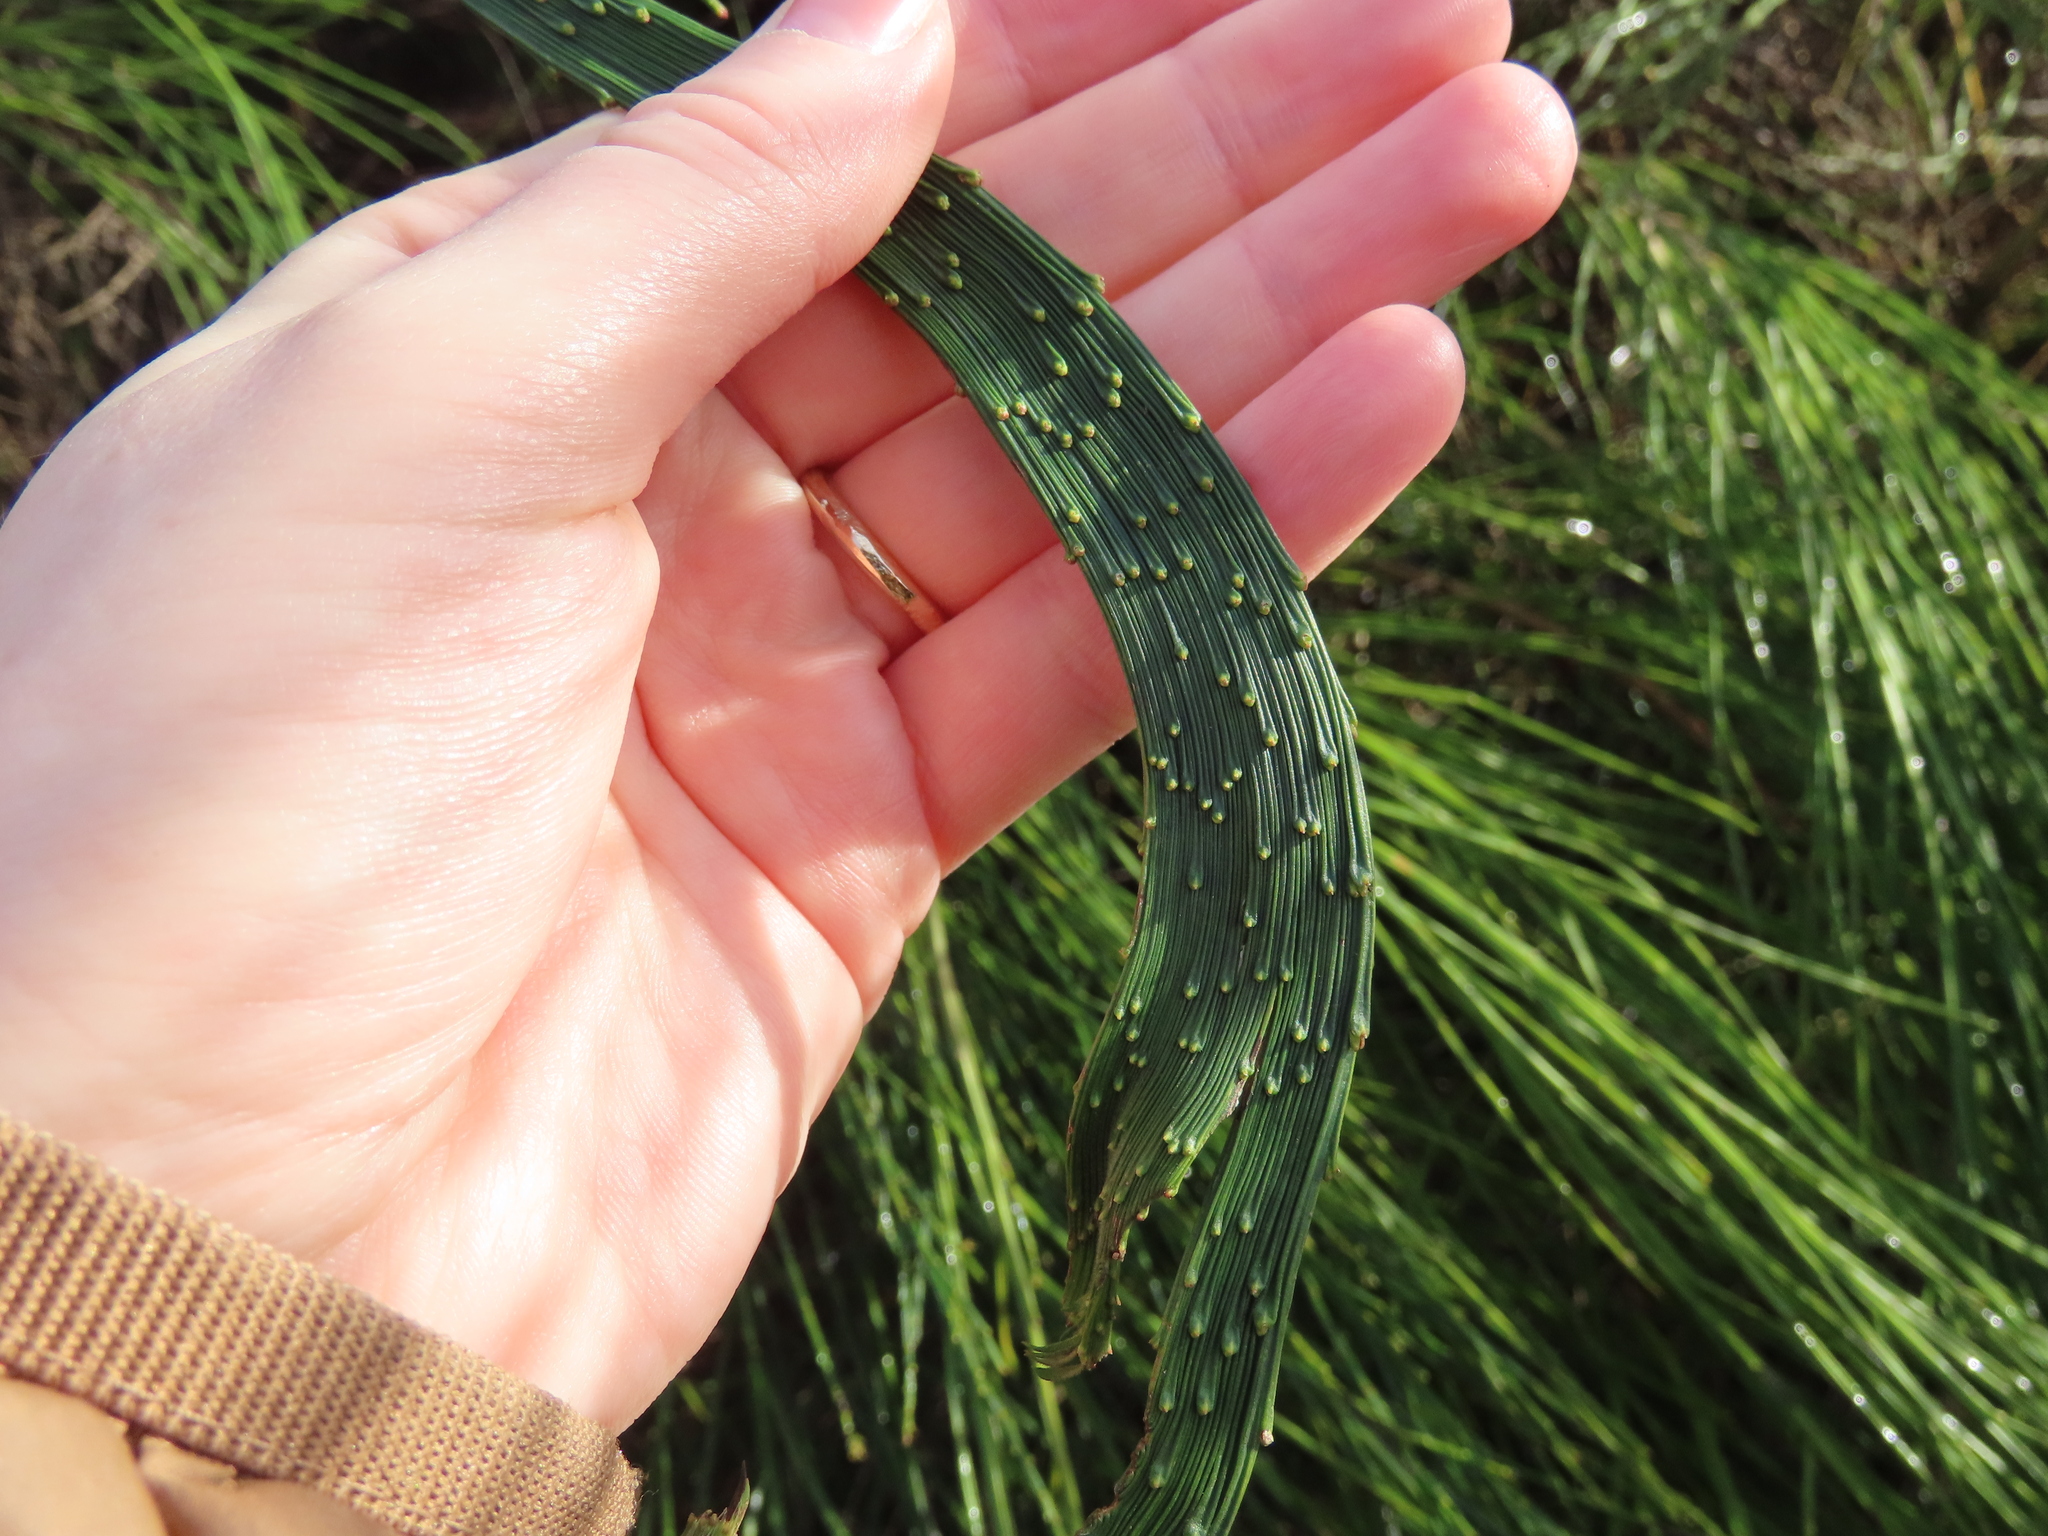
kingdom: Plantae
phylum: Tracheophyta
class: Magnoliopsida
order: Fabales
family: Fabaceae
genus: Cytisus
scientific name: Cytisus scoparius
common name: Scotch broom
